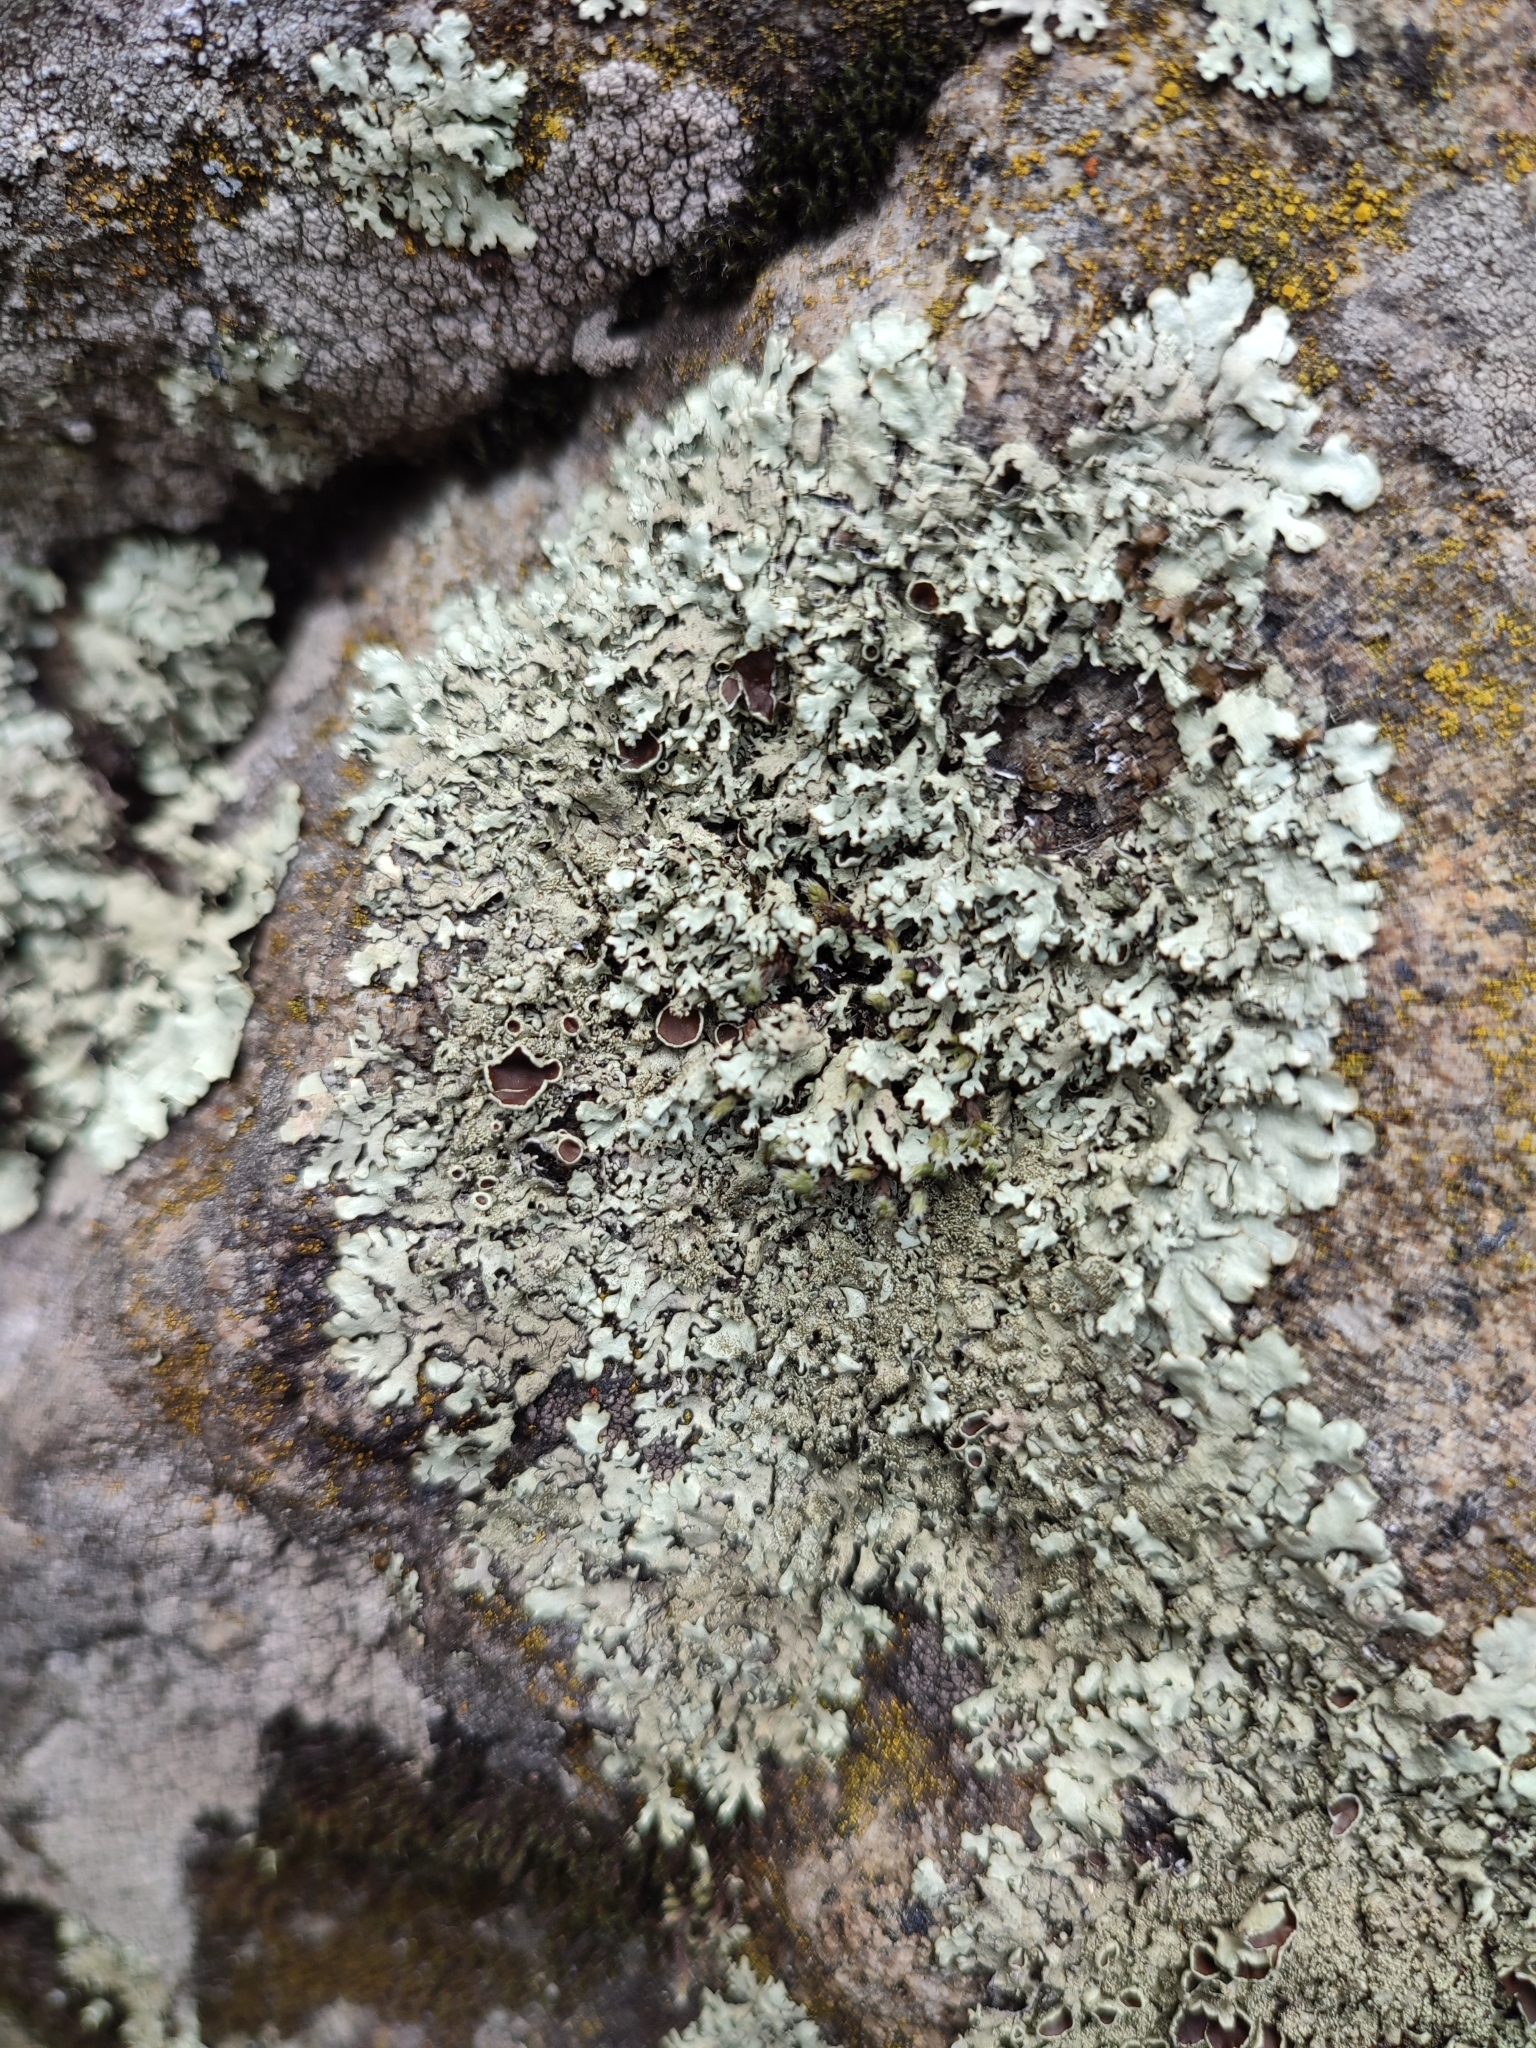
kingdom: Fungi
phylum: Ascomycota
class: Lecanoromycetes
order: Lecanorales
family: Parmeliaceae
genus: Xanthoparmelia
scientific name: Xanthoparmelia conspersa
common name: Peppered rock shield
